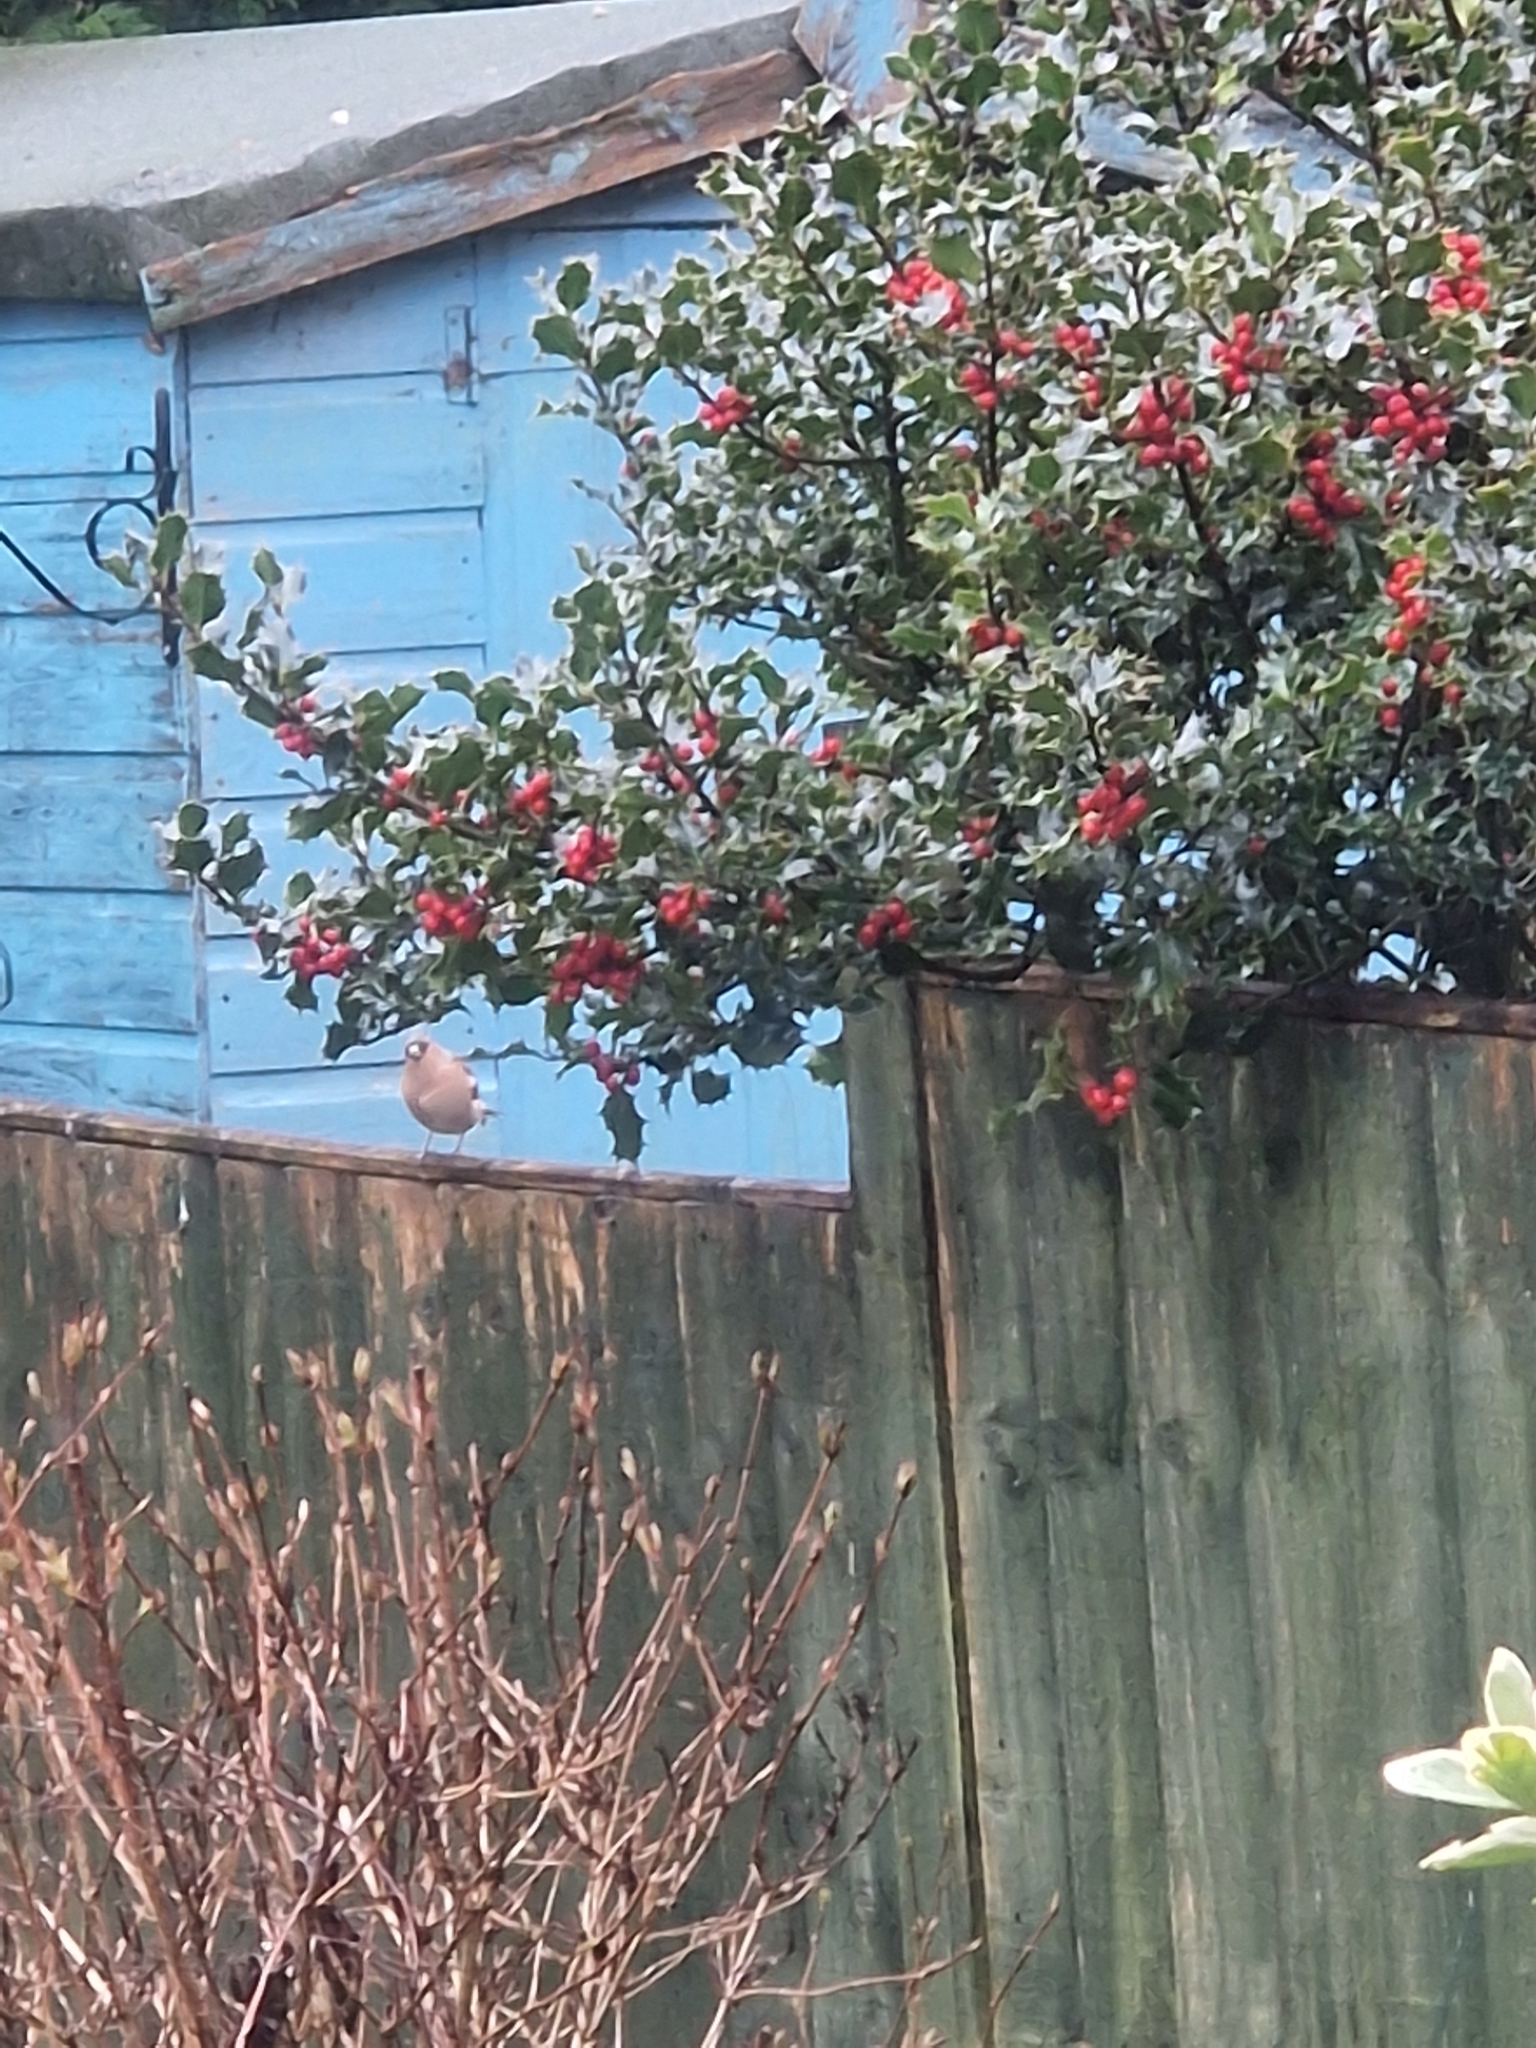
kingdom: Animalia
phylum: Chordata
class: Aves
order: Passeriformes
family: Fringillidae
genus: Fringilla
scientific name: Fringilla coelebs
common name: Common chaffinch
